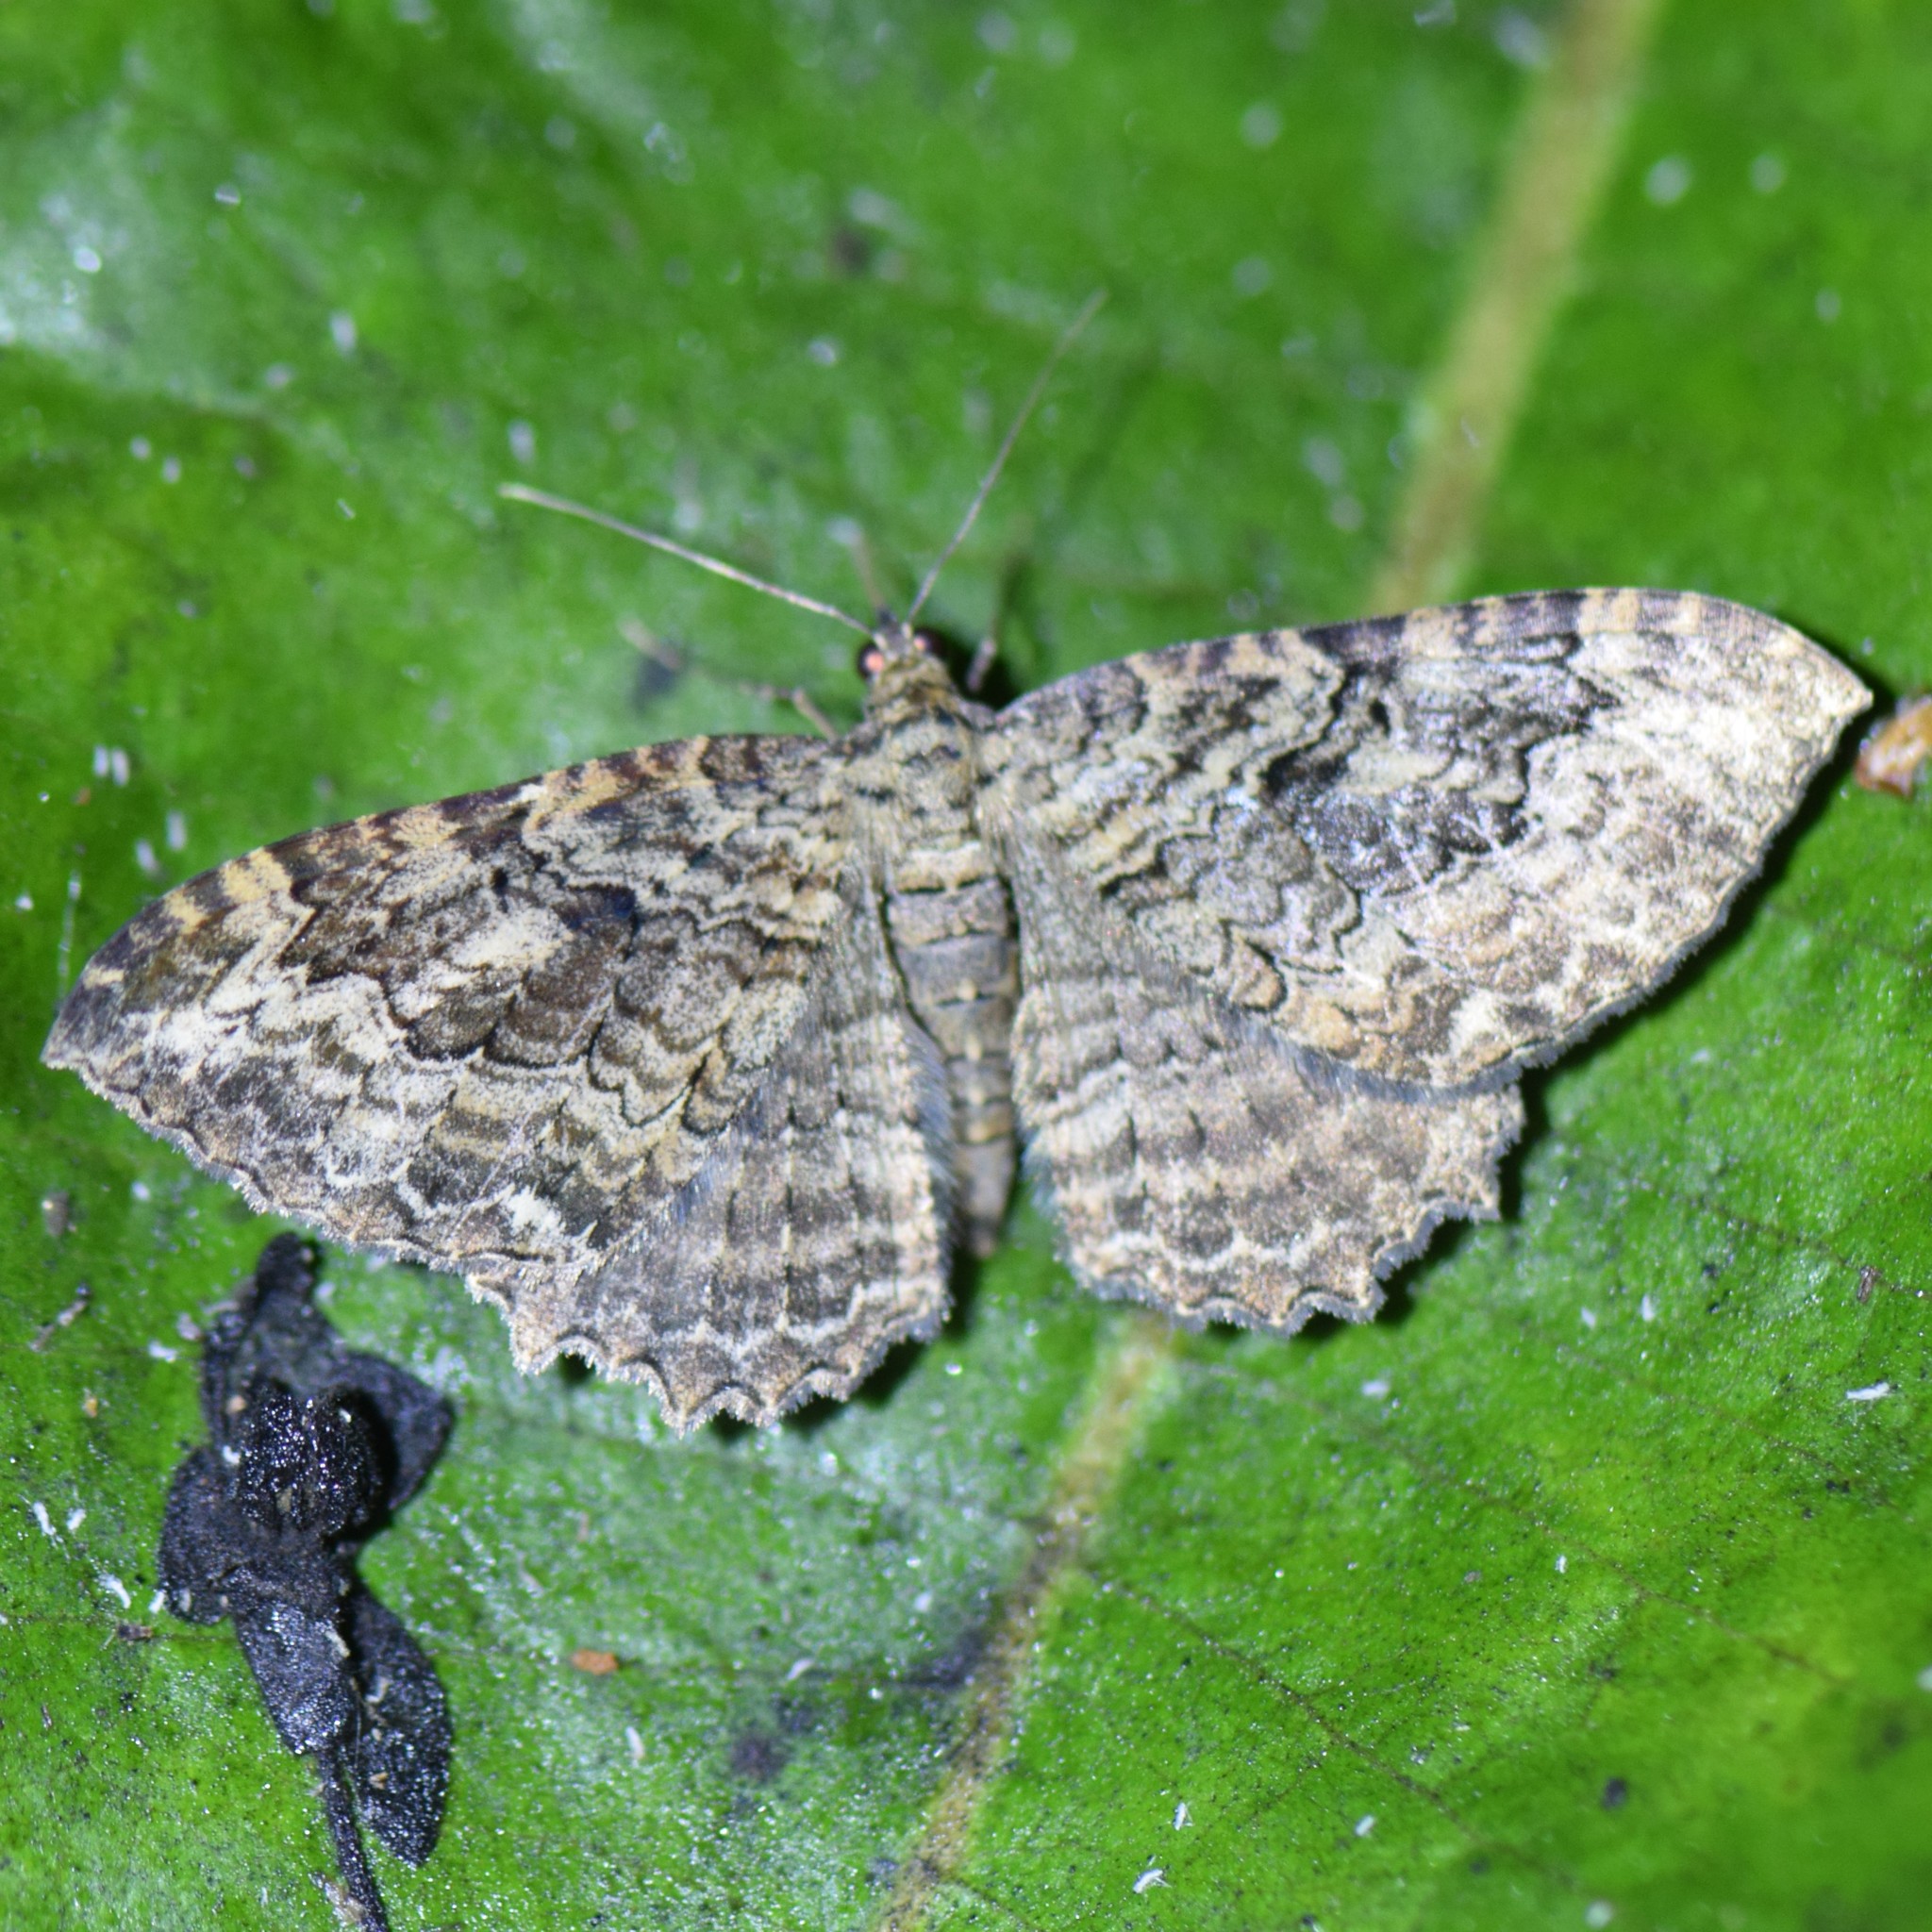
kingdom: Animalia
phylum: Arthropoda
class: Insecta
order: Lepidoptera
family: Geometridae
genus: Rheumaptera
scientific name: Rheumaptera
